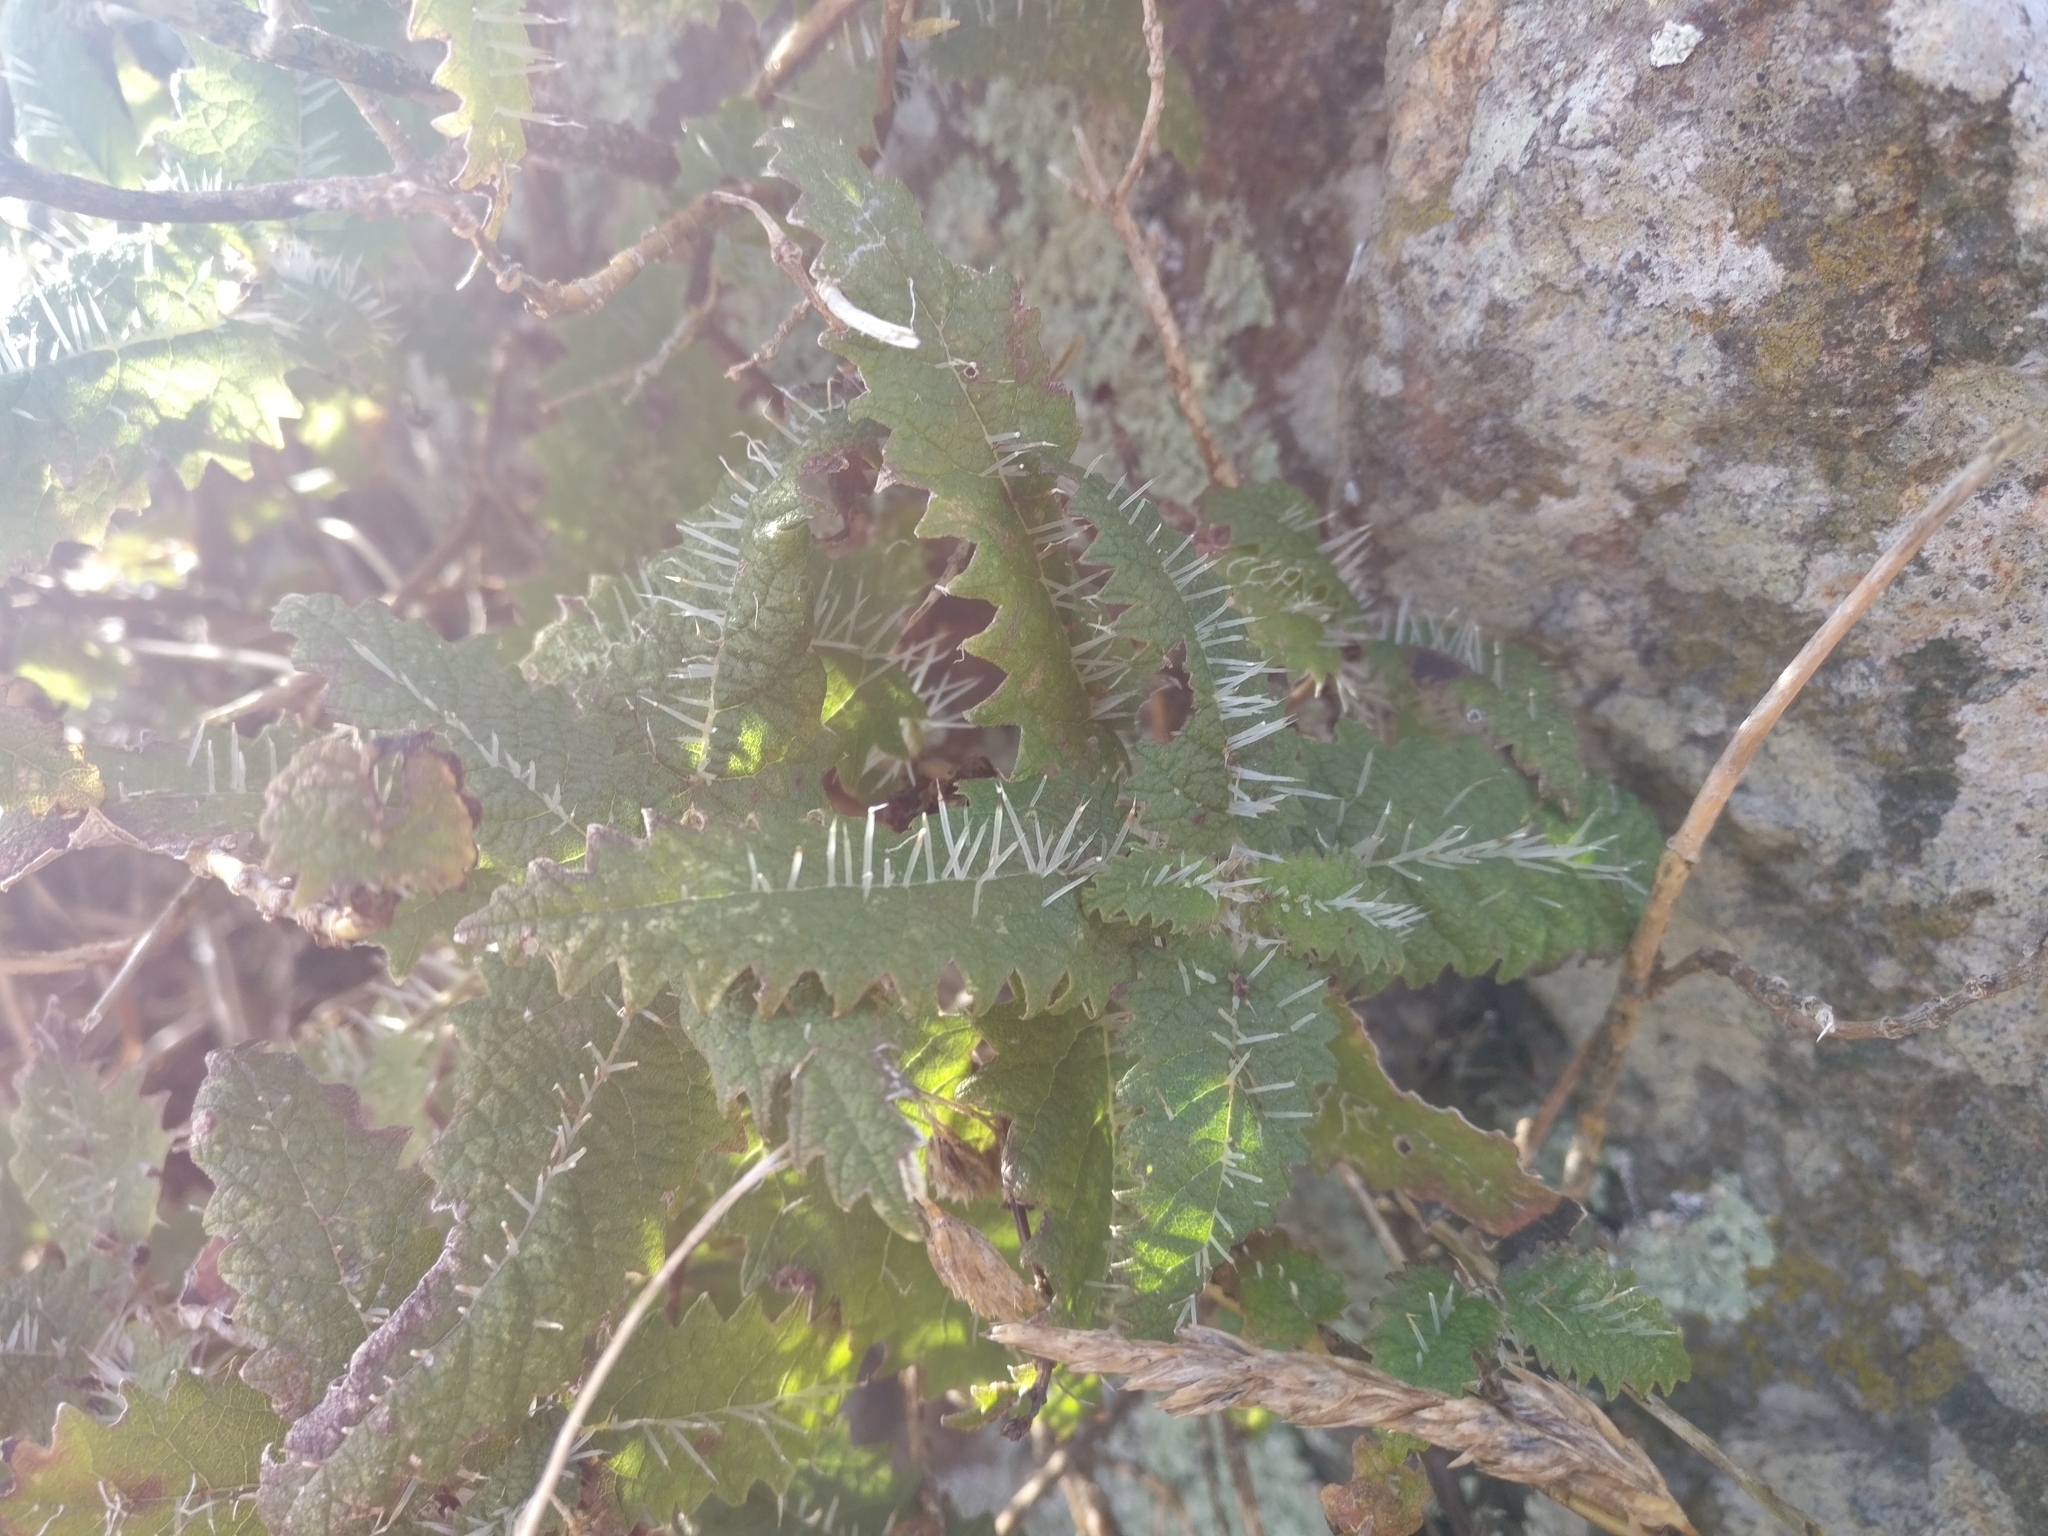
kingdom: Plantae
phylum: Tracheophyta
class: Magnoliopsida
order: Rosales
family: Urticaceae
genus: Urtica
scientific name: Urtica ferox
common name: Tree nettle
